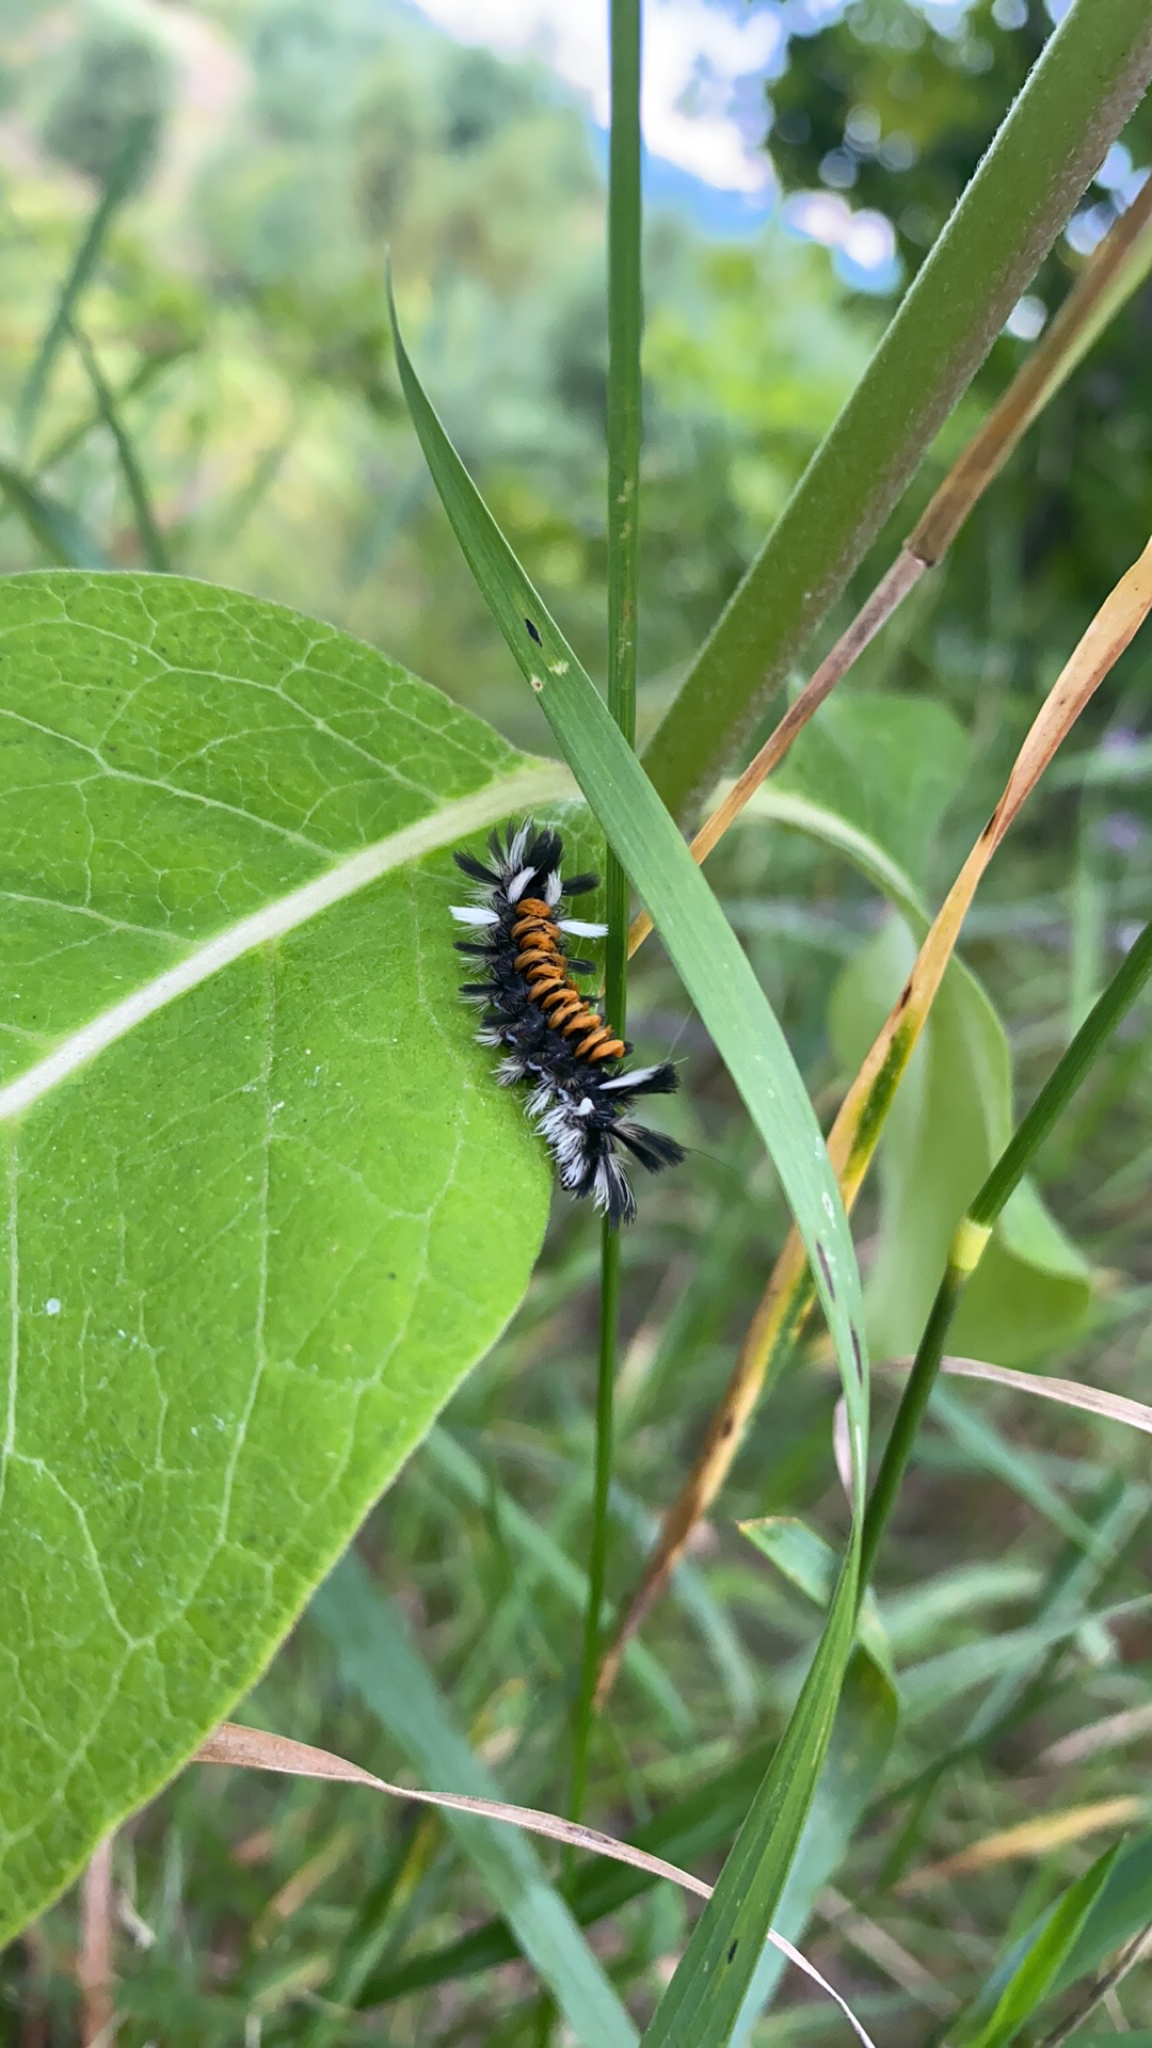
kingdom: Animalia
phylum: Arthropoda
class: Insecta
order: Lepidoptera
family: Erebidae
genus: Euchaetes
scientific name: Euchaetes egle
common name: Milkweed tussock moth
